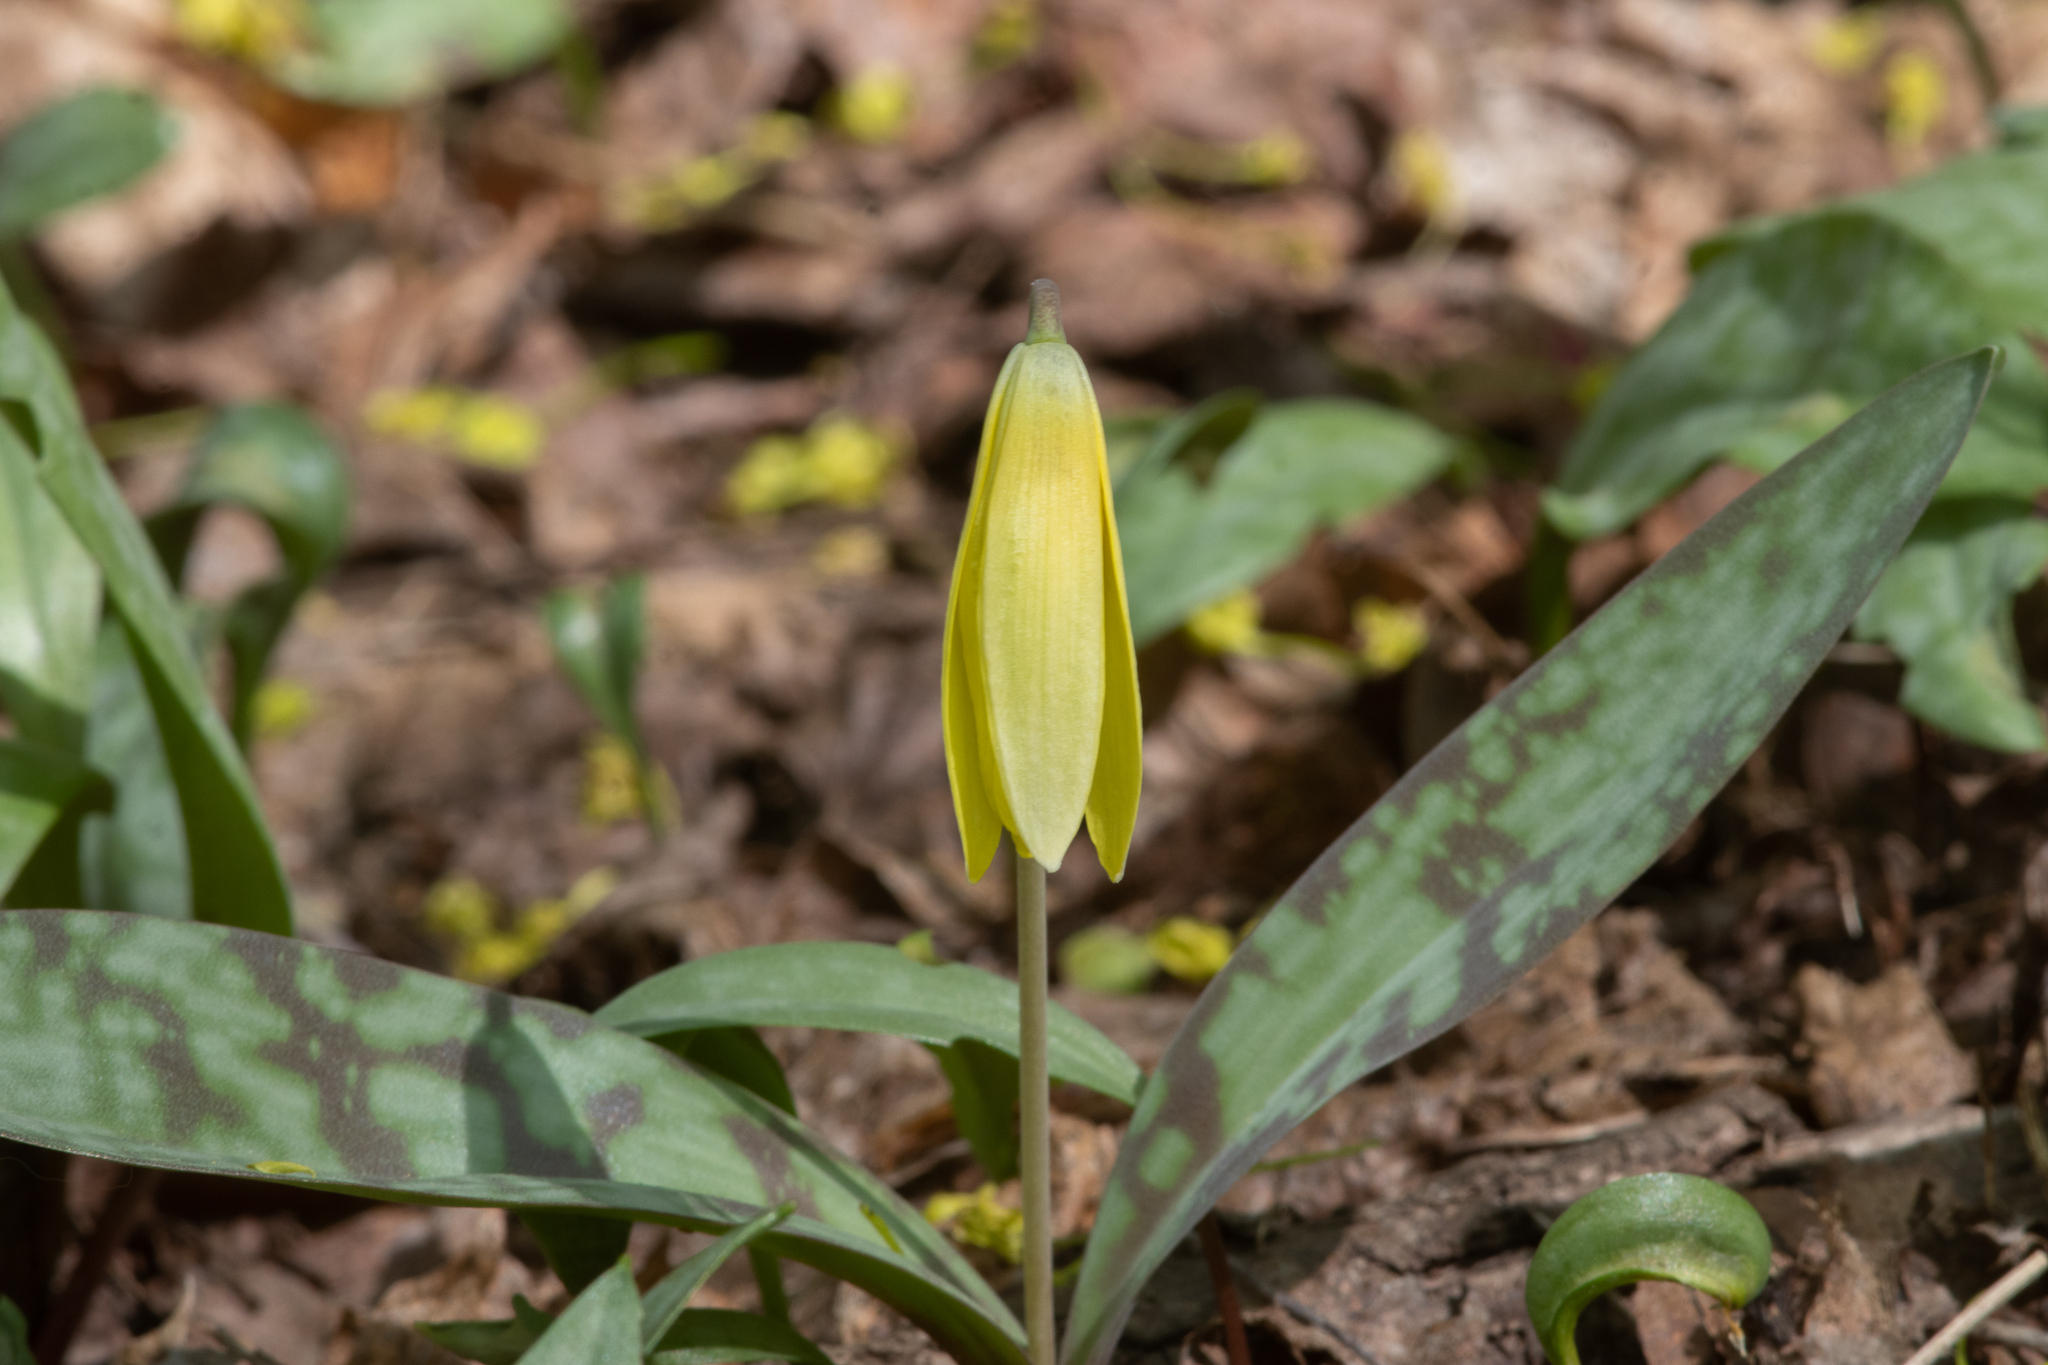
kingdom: Plantae
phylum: Tracheophyta
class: Liliopsida
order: Liliales
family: Liliaceae
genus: Erythronium
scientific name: Erythronium americanum
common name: Yellow adder's-tongue
